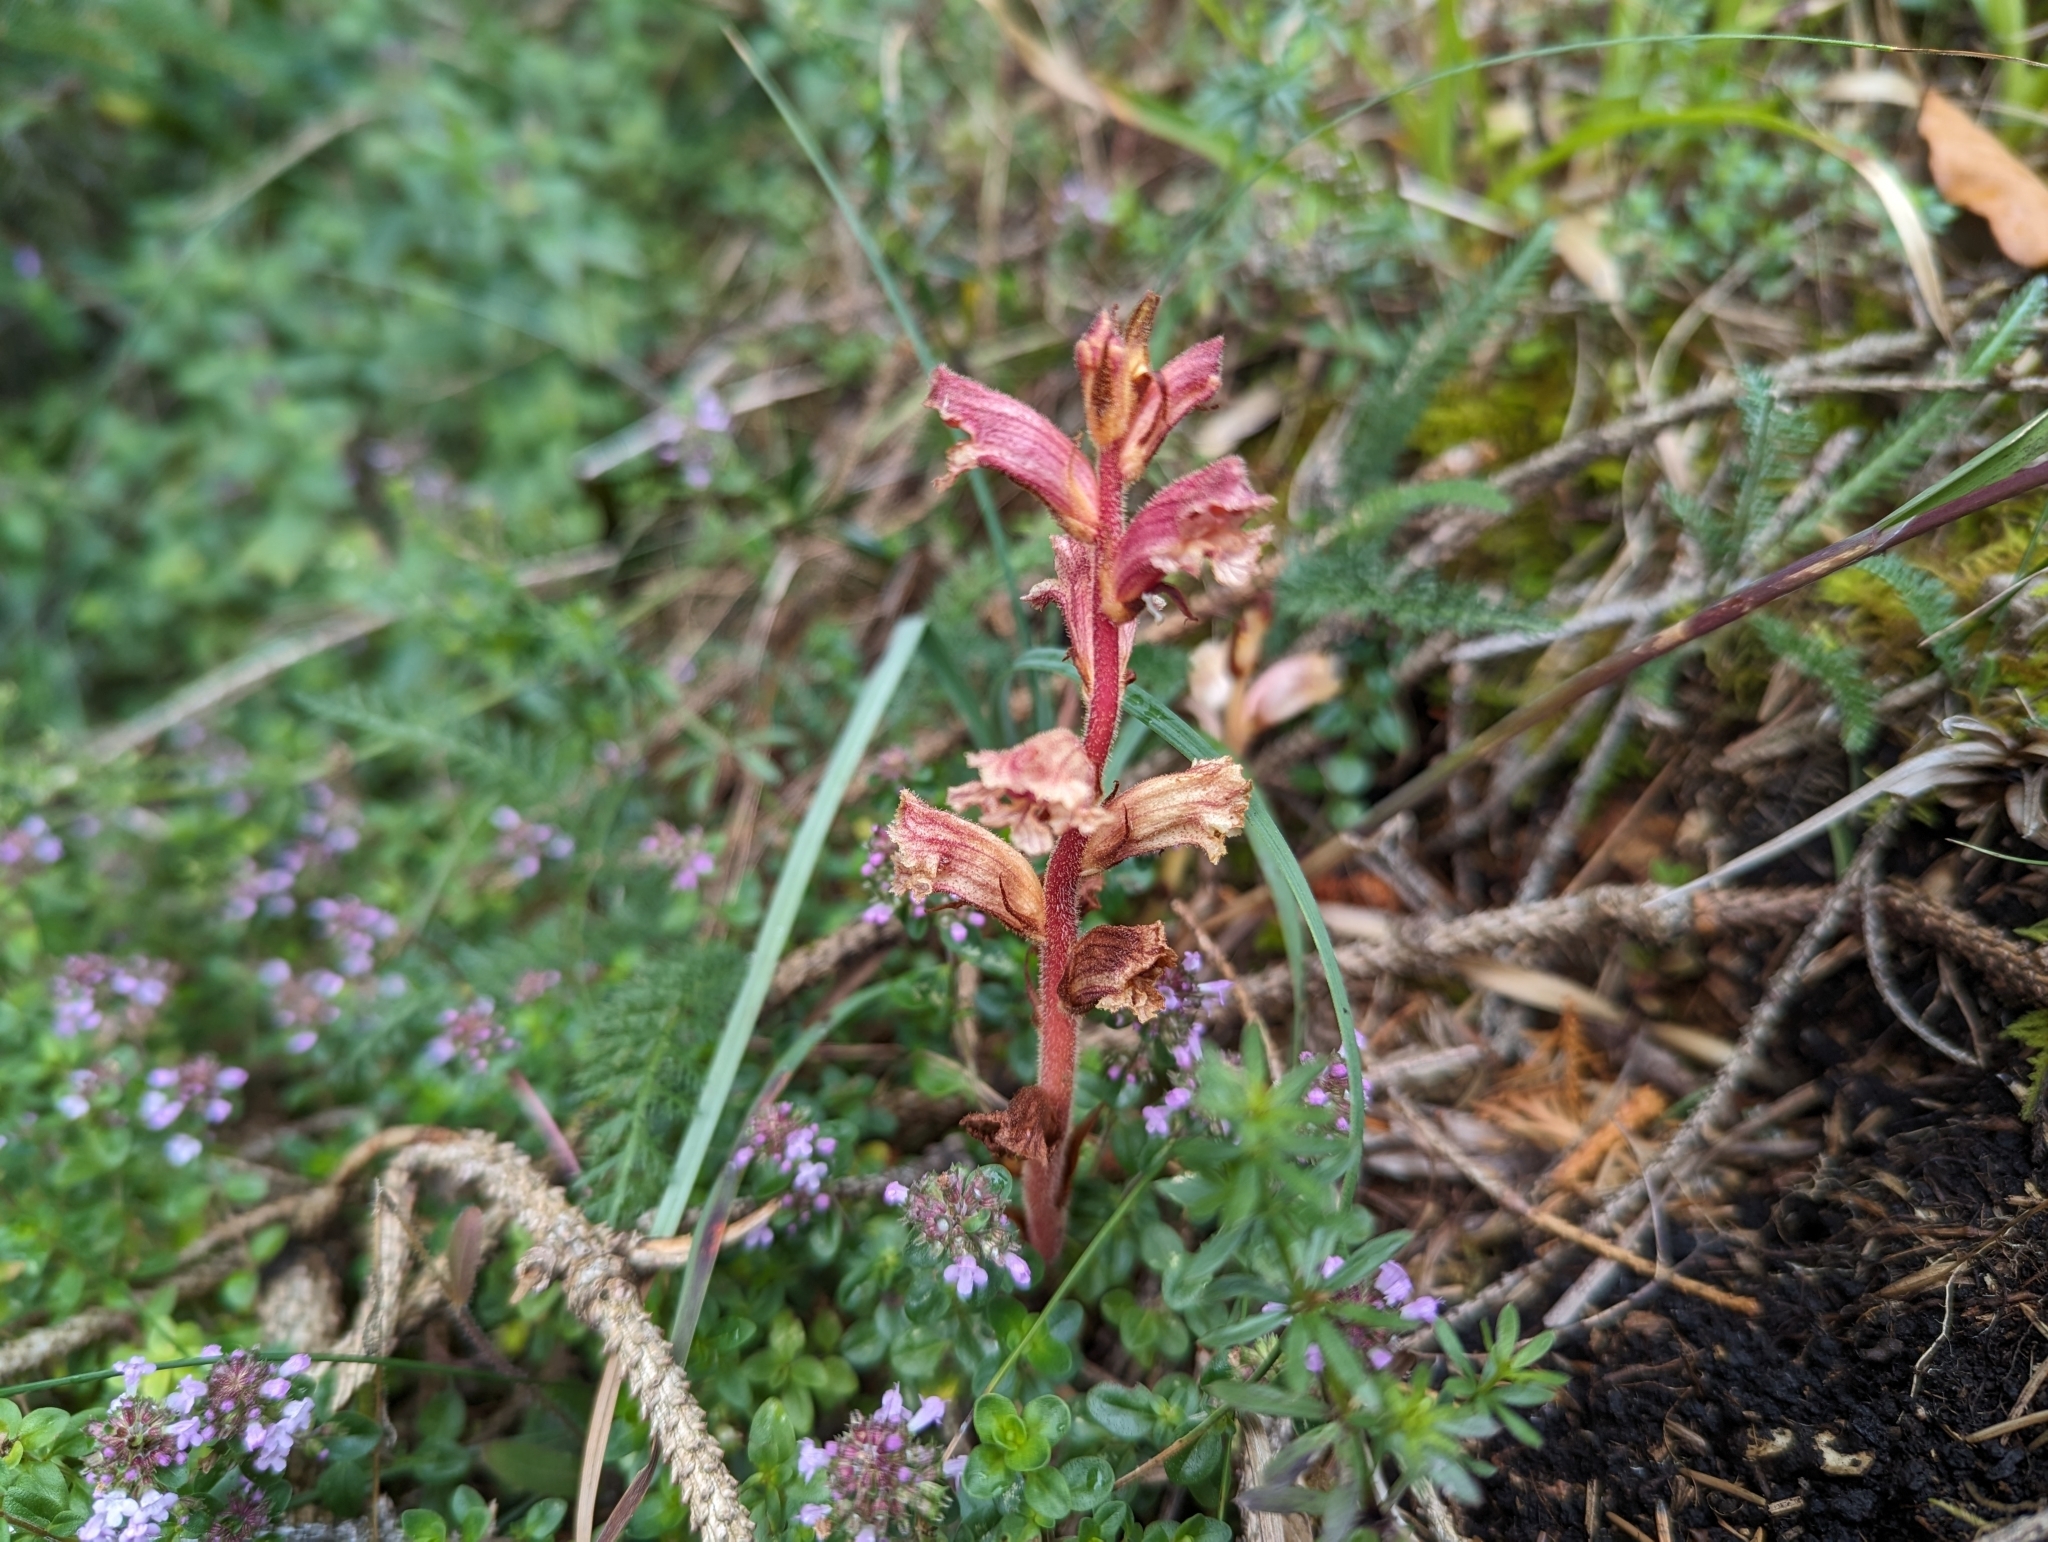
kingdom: Plantae
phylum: Tracheophyta
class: Magnoliopsida
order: Lamiales
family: Orobanchaceae
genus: Orobanche
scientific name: Orobanche alba
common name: Thyme broomrape
